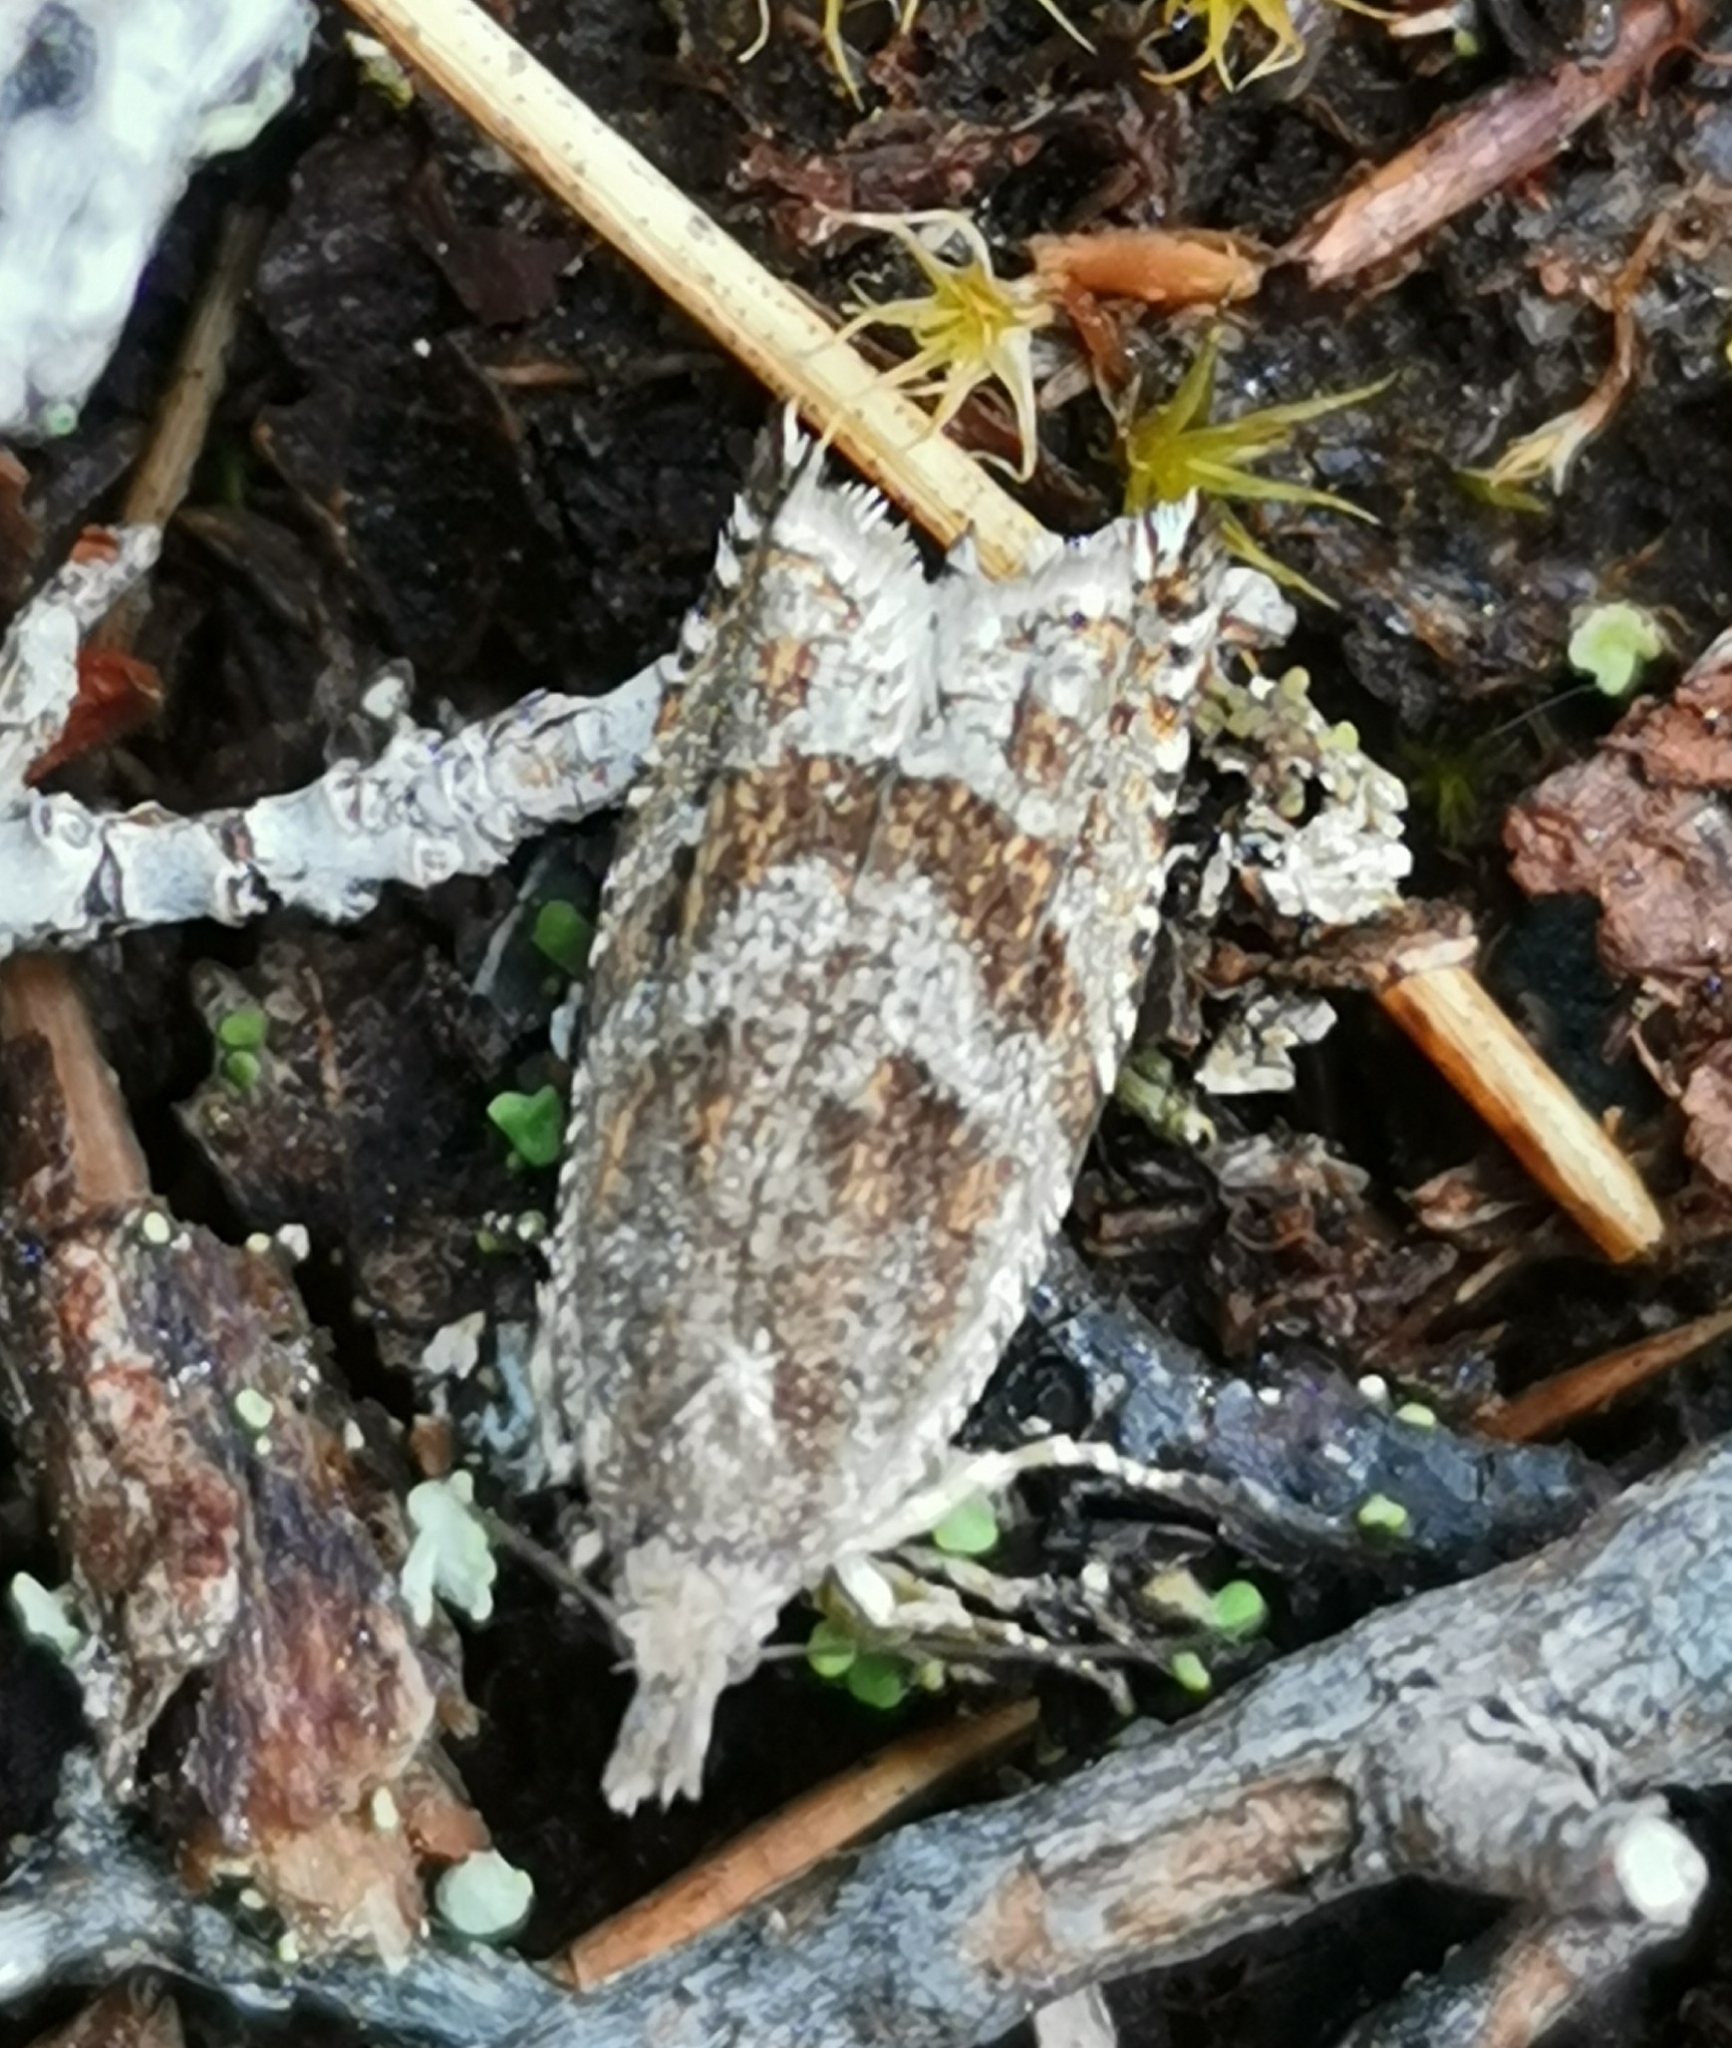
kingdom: Animalia
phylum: Arthropoda
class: Insecta
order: Lepidoptera
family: Tortricidae
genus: Ancylis
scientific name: Ancylis unguicella
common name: Broken-barred roller
